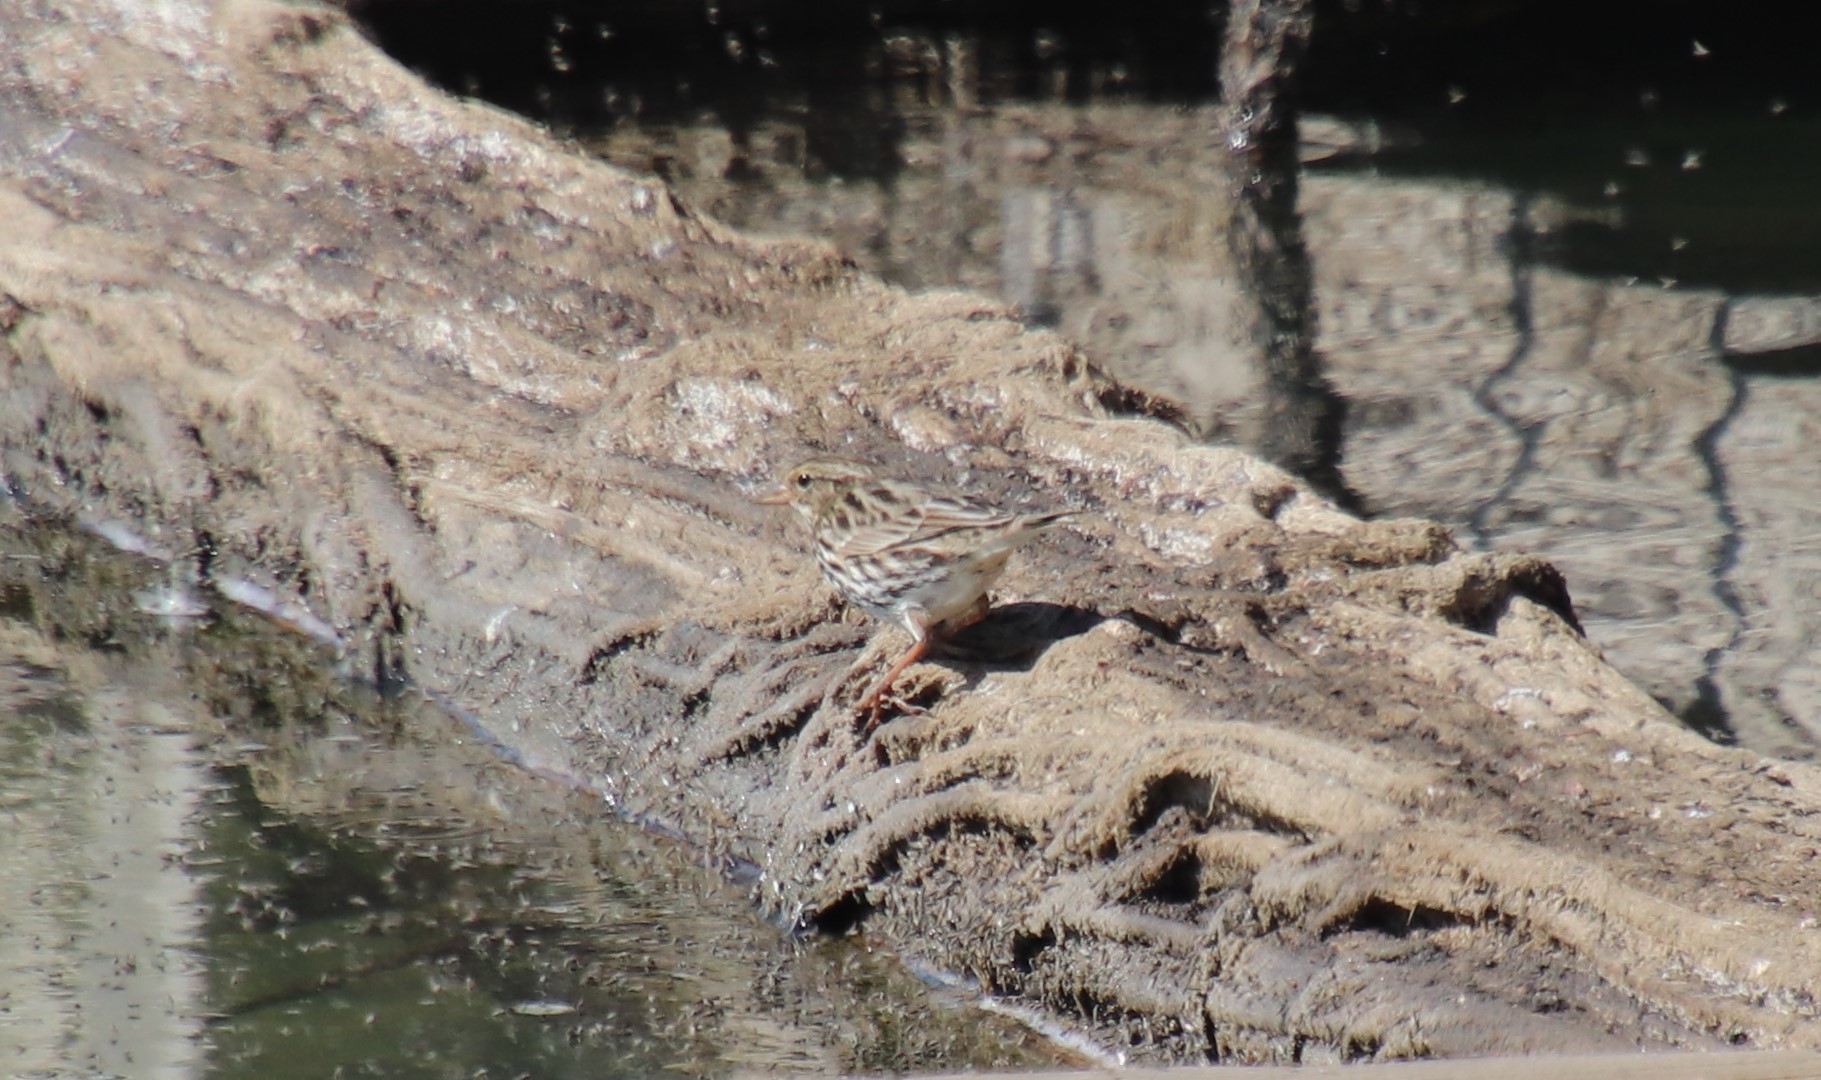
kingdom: Animalia
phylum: Chordata
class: Aves
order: Passeriformes
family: Passerellidae
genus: Passerculus
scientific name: Passerculus sandwichensis
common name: Savannah sparrow
